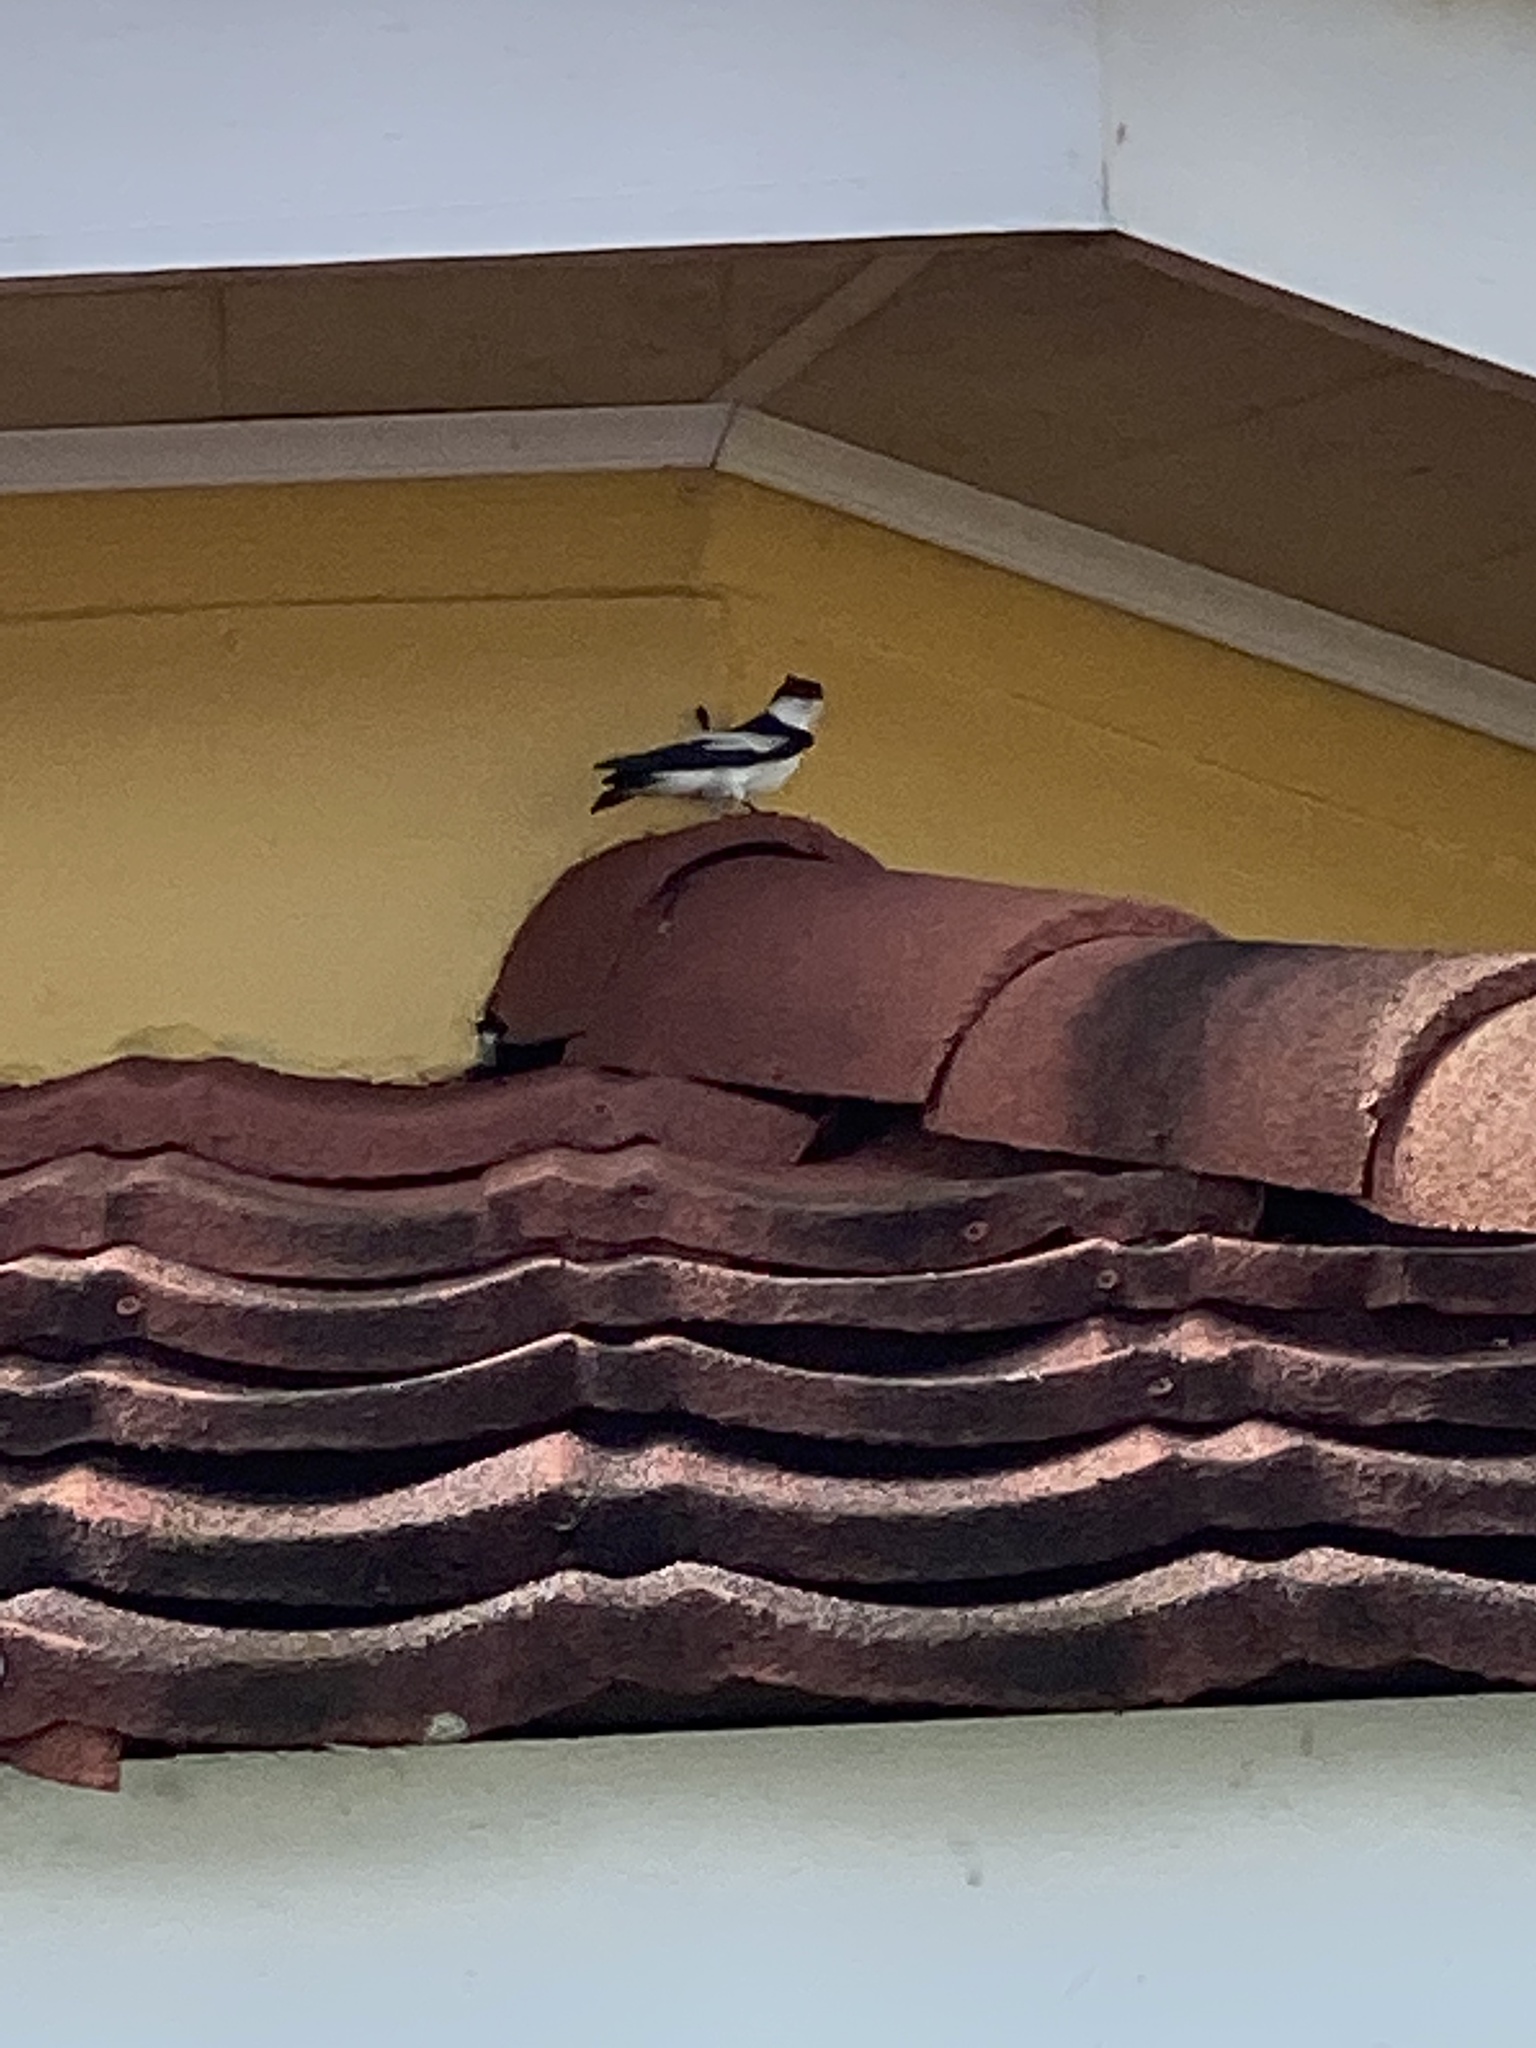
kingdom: Animalia
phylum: Chordata
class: Aves
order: Passeriformes
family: Hirundinidae
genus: Tachycineta
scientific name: Tachycineta albiventer
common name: White-winged swallow
